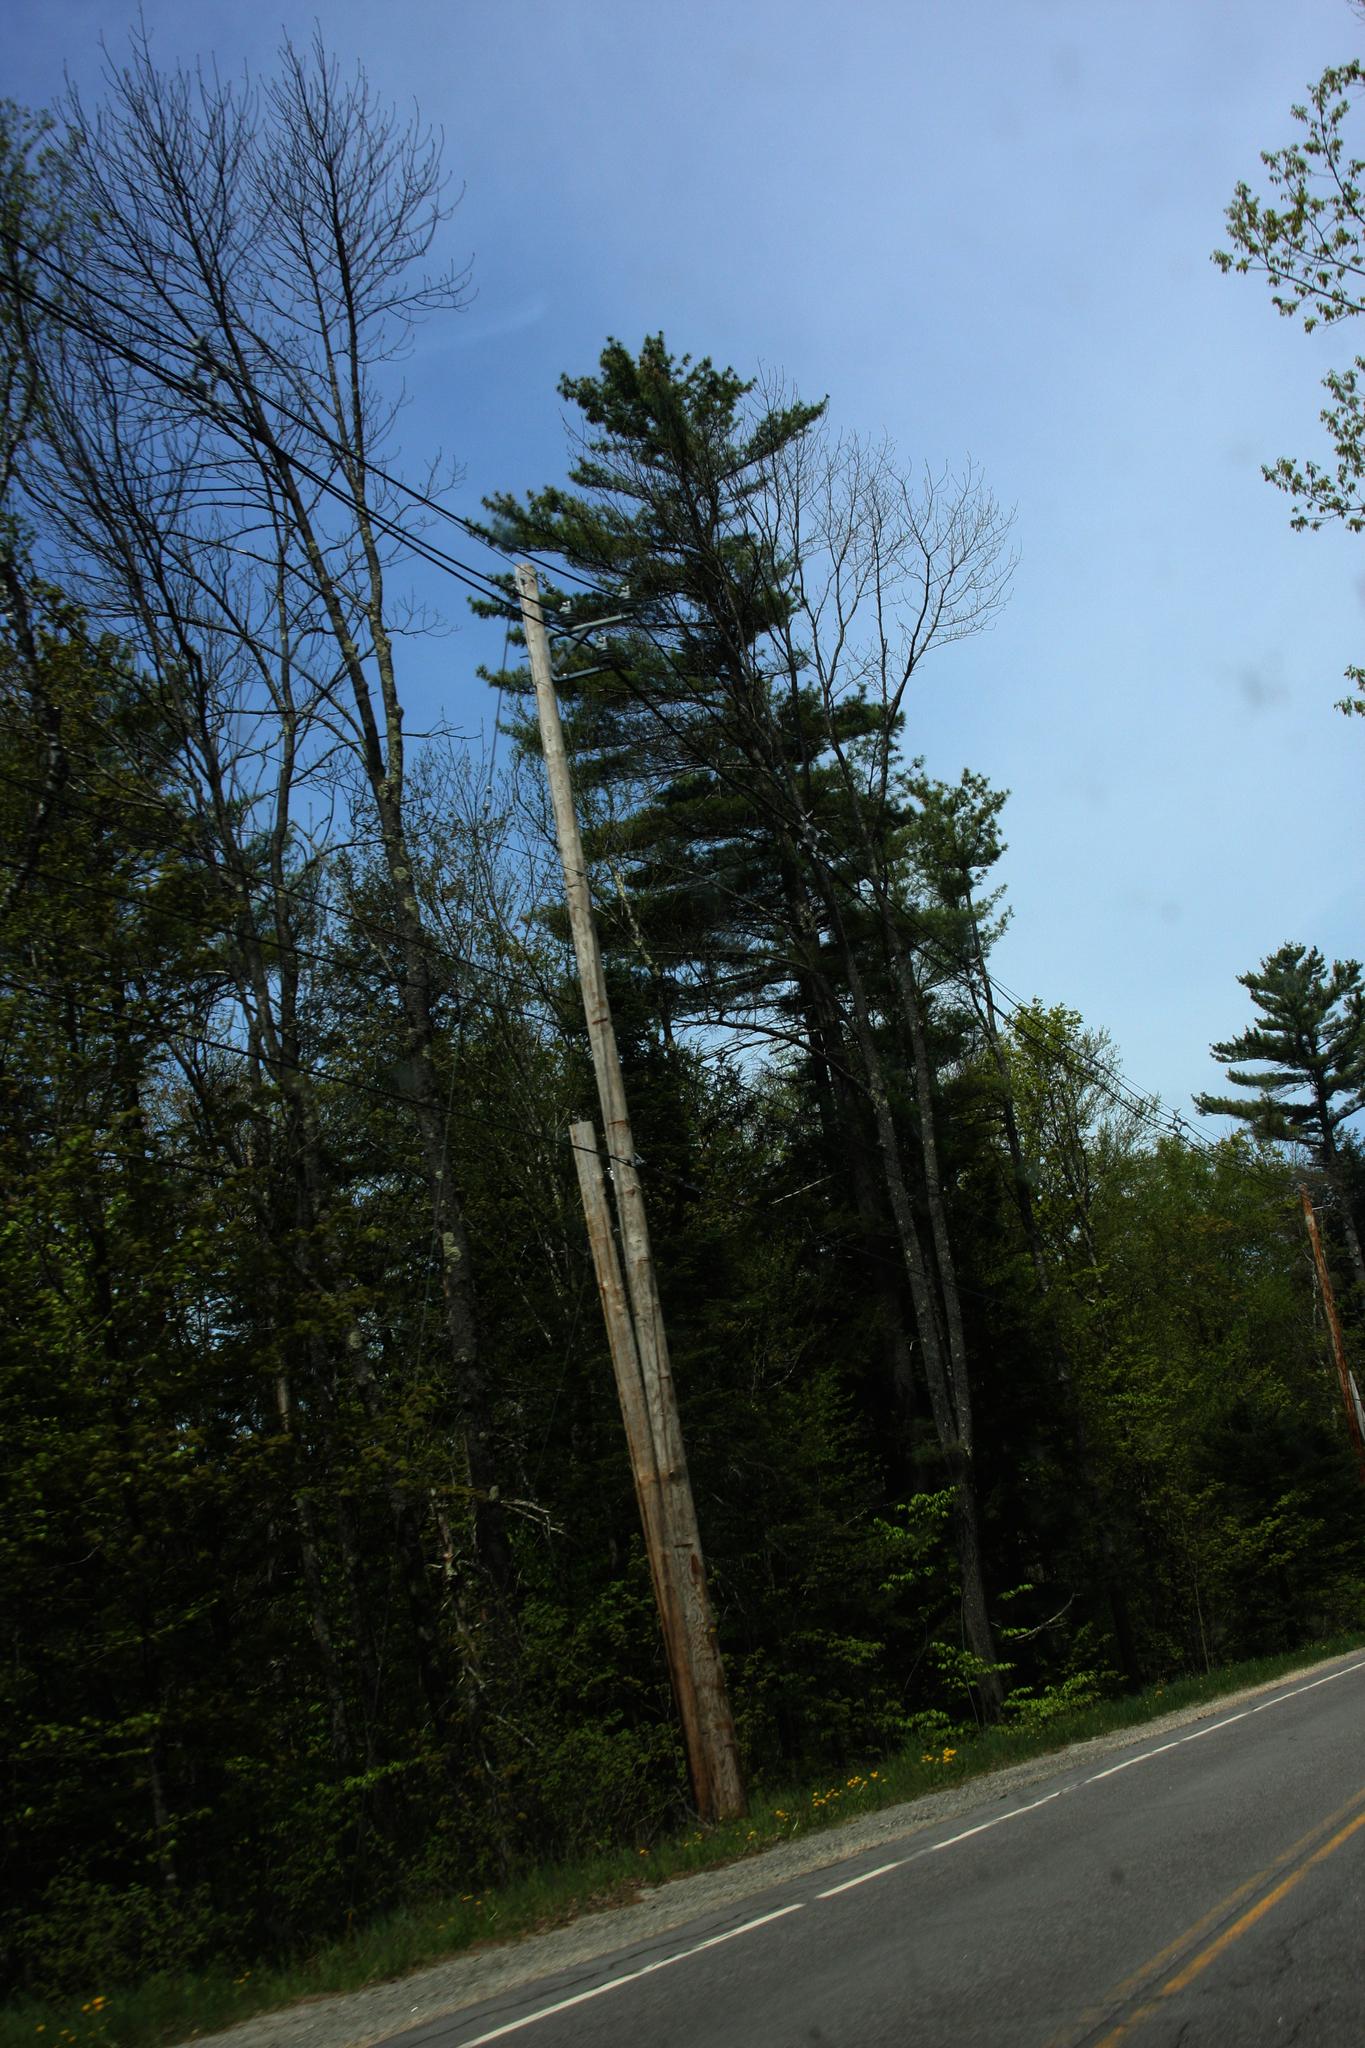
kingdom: Plantae
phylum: Tracheophyta
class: Pinopsida
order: Pinales
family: Pinaceae
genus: Pinus
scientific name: Pinus strobus
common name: Weymouth pine
